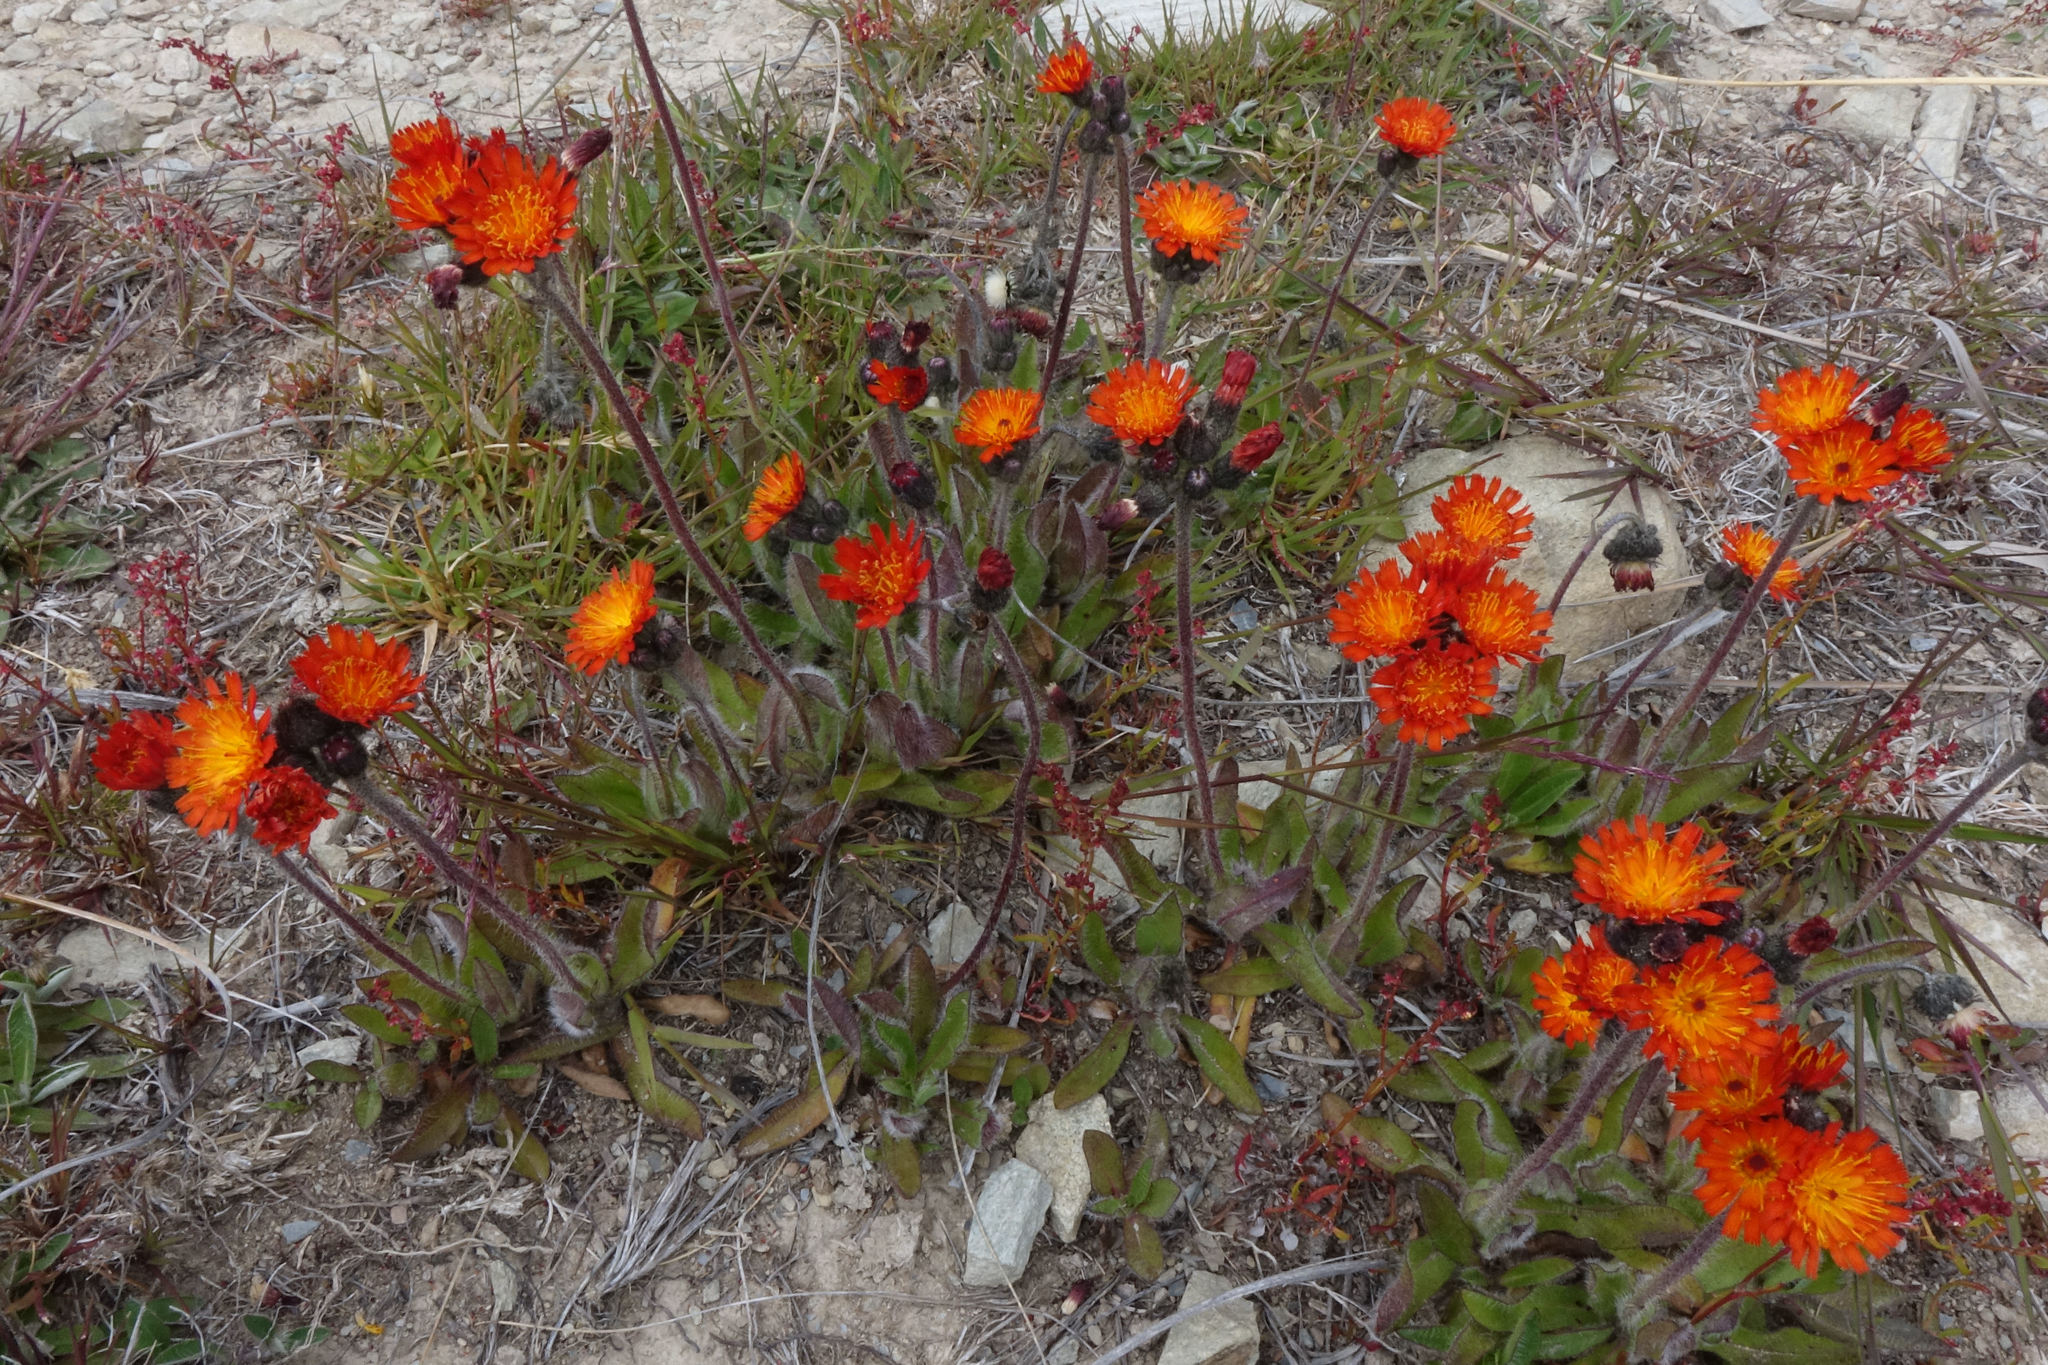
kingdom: Plantae
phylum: Tracheophyta
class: Magnoliopsida
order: Asterales
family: Asteraceae
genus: Pilosella
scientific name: Pilosella aurantiaca
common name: Fox-and-cubs
